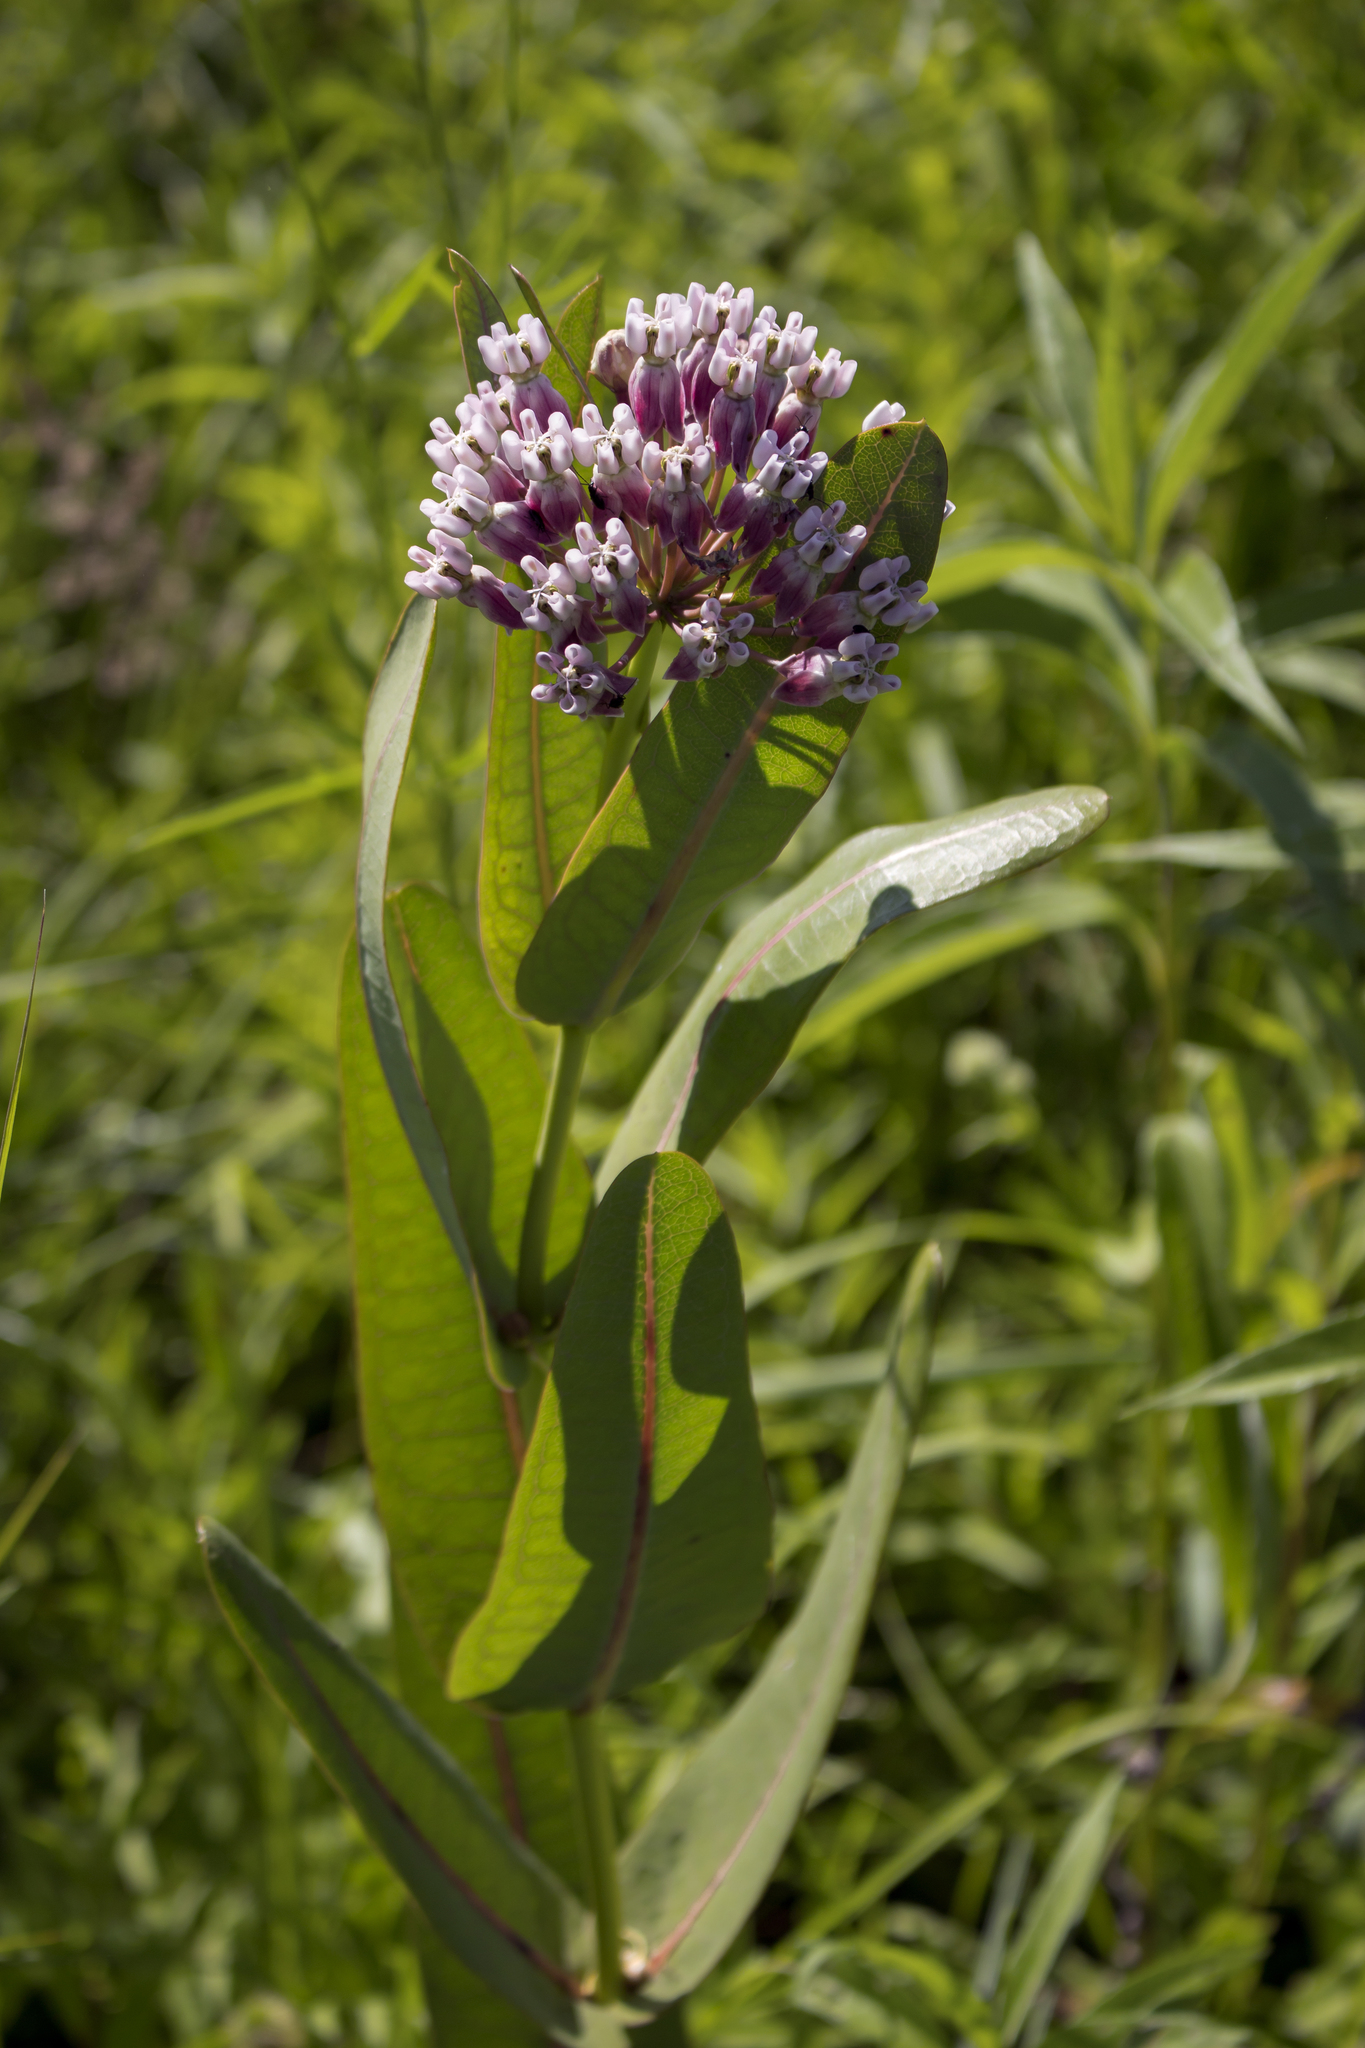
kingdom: Plantae
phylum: Tracheophyta
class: Magnoliopsida
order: Gentianales
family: Apocynaceae
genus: Asclepias
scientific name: Asclepias sullivantii
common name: Prairie milkweed
